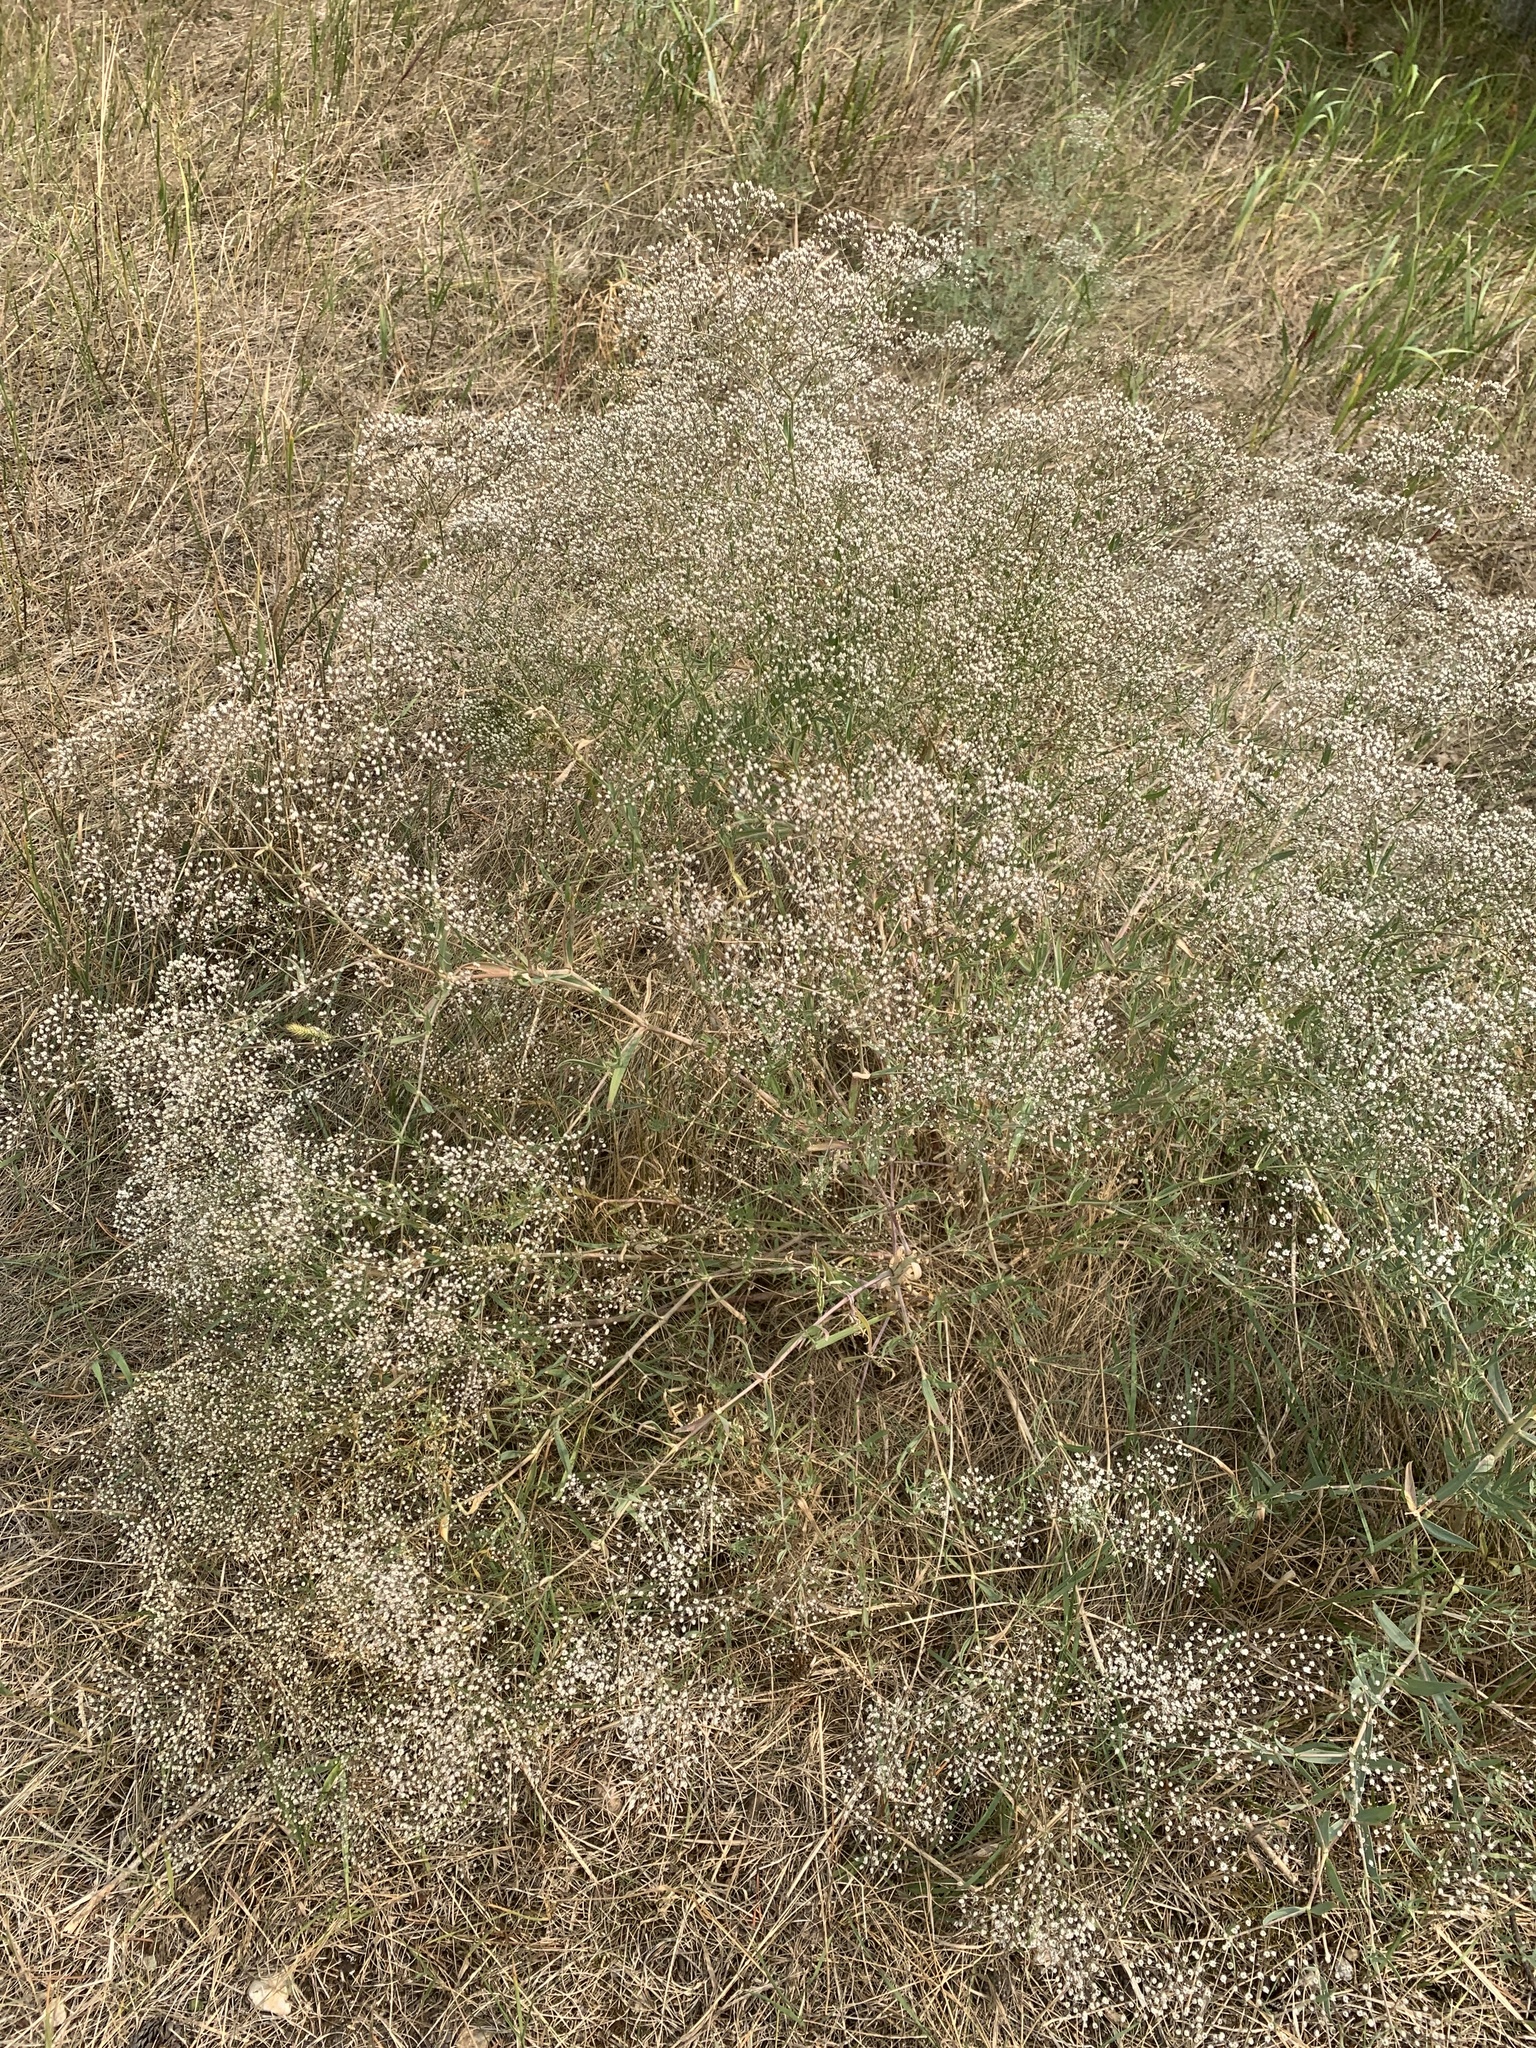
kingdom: Plantae
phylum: Tracheophyta
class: Magnoliopsida
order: Caryophyllales
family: Caryophyllaceae
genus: Gypsophila
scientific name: Gypsophila paniculata
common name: Baby's-breath
